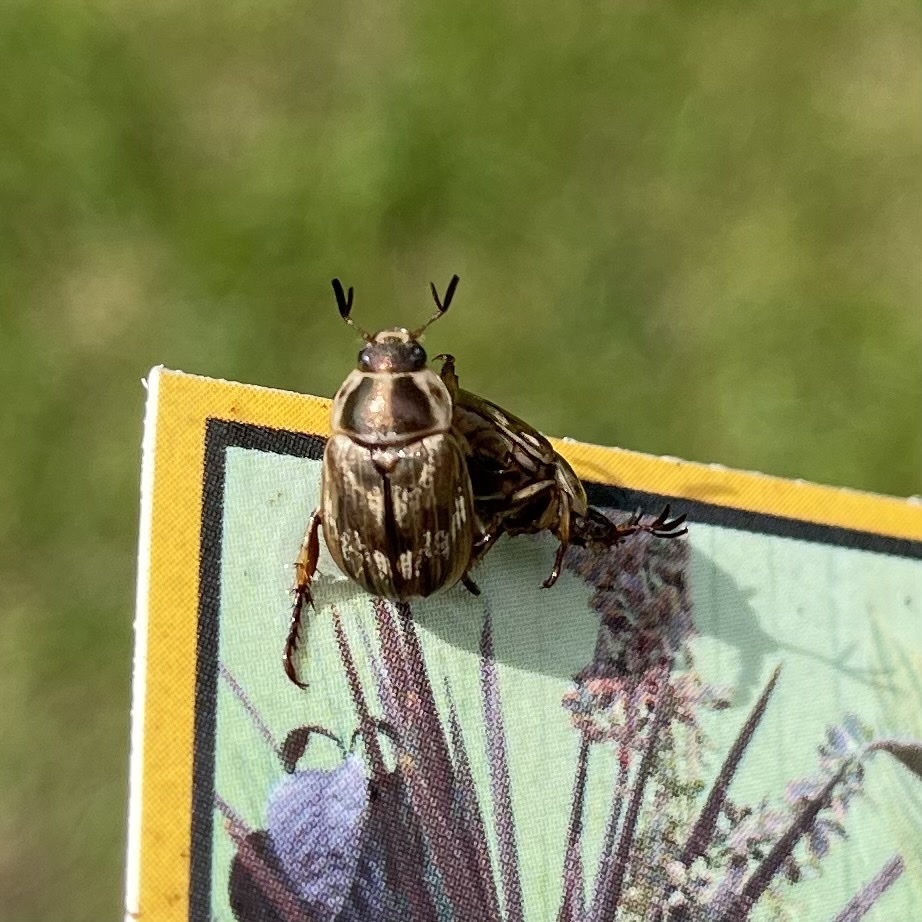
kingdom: Animalia
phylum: Arthropoda
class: Insecta
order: Coleoptera
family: Scarabaeidae
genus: Exomala
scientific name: Exomala orientalis
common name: Oriental beetle
